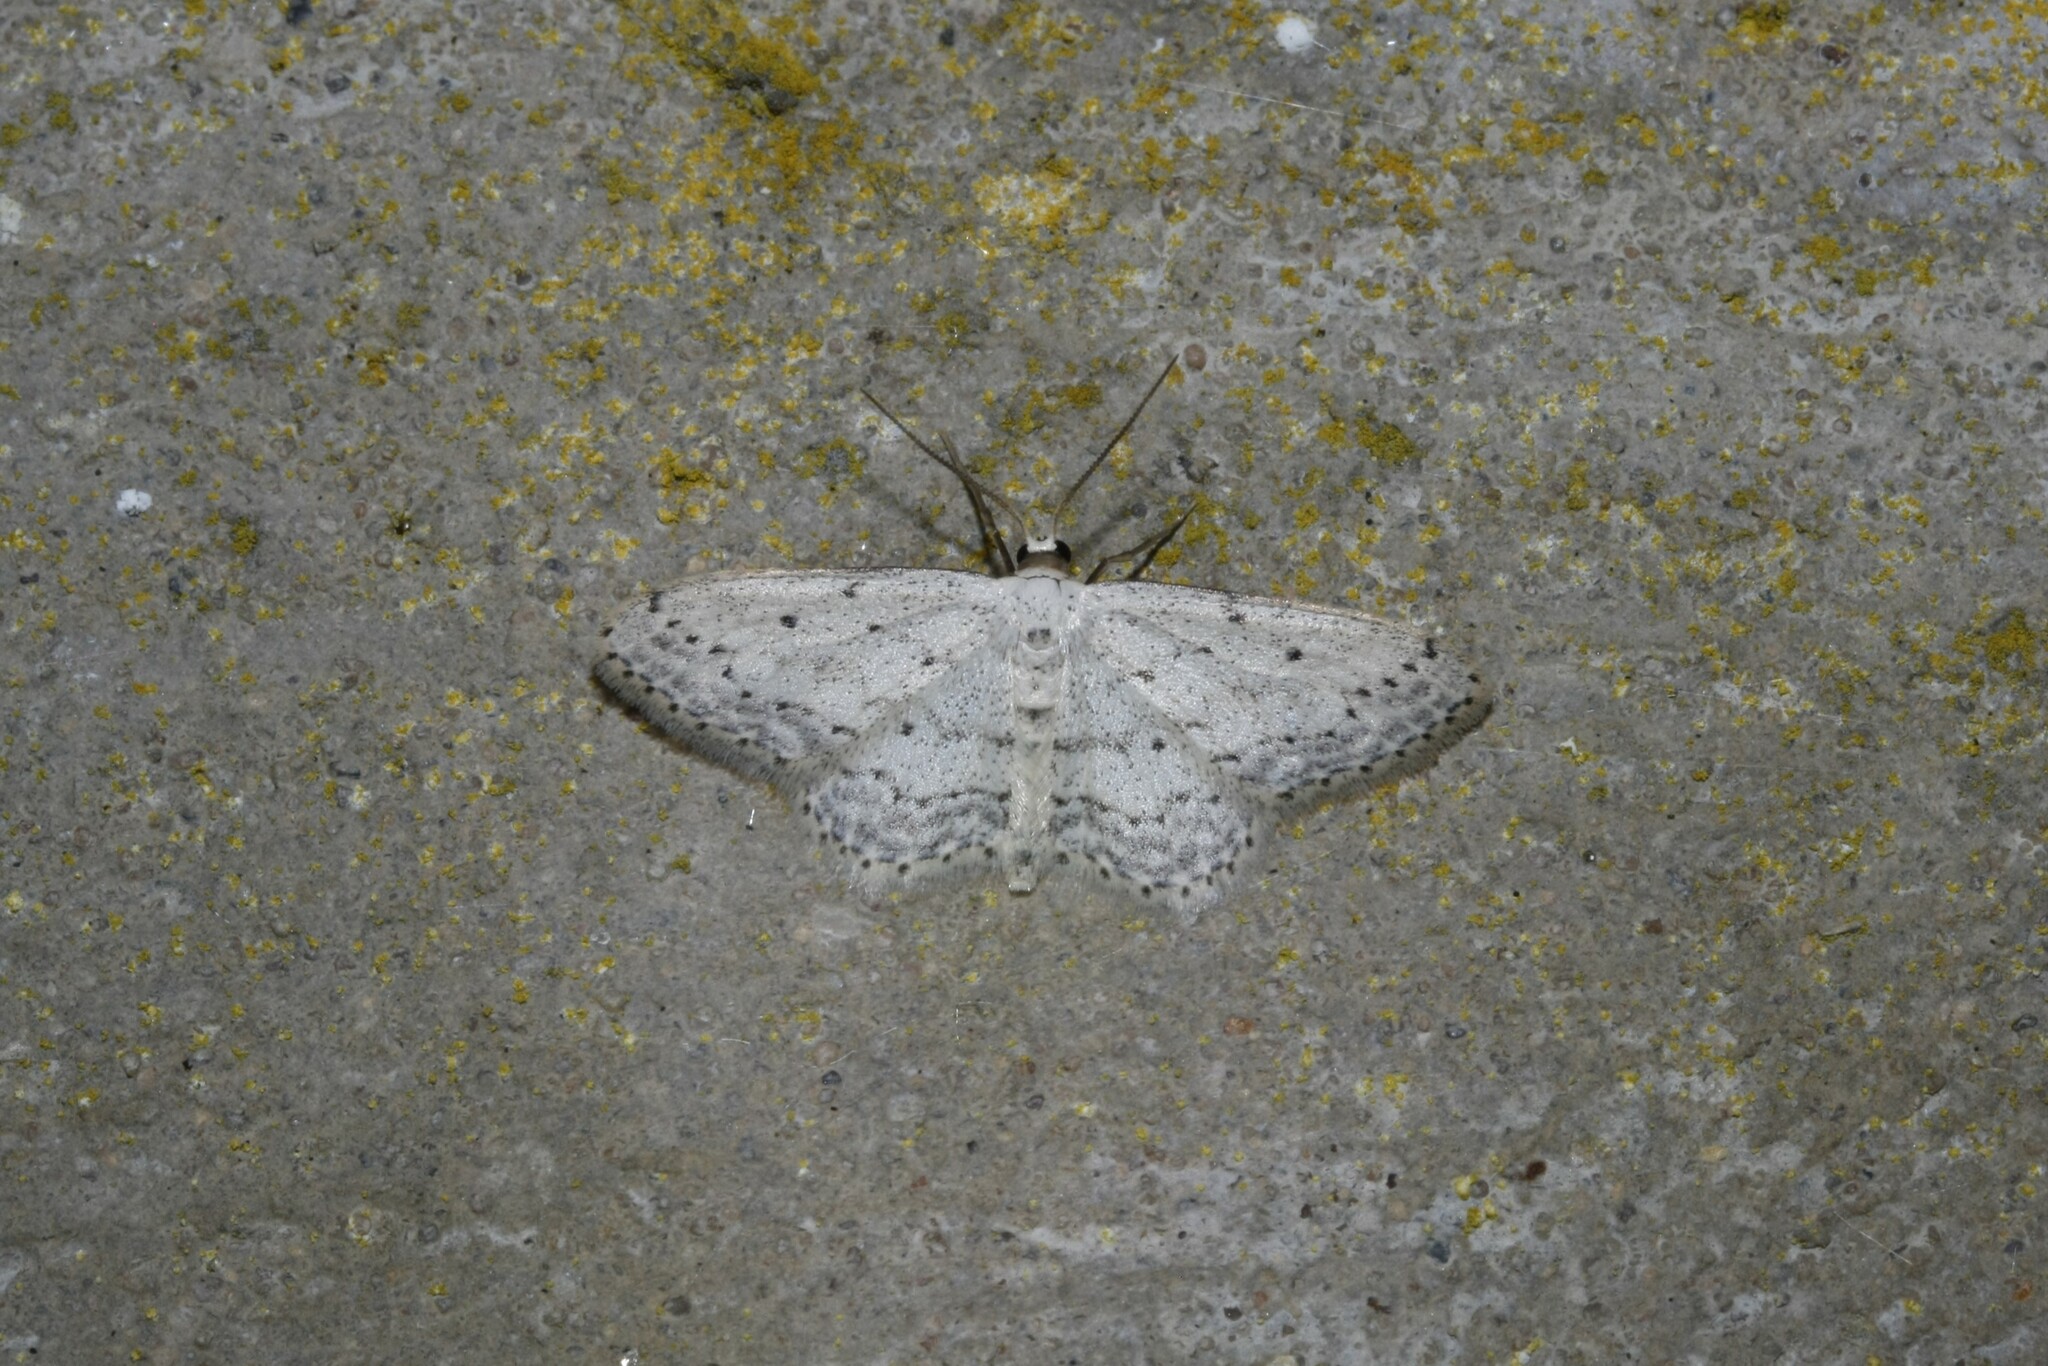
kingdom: Animalia
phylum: Arthropoda
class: Insecta
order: Lepidoptera
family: Geometridae
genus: Idaea
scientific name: Idaea seriata
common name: Small dusty wave
